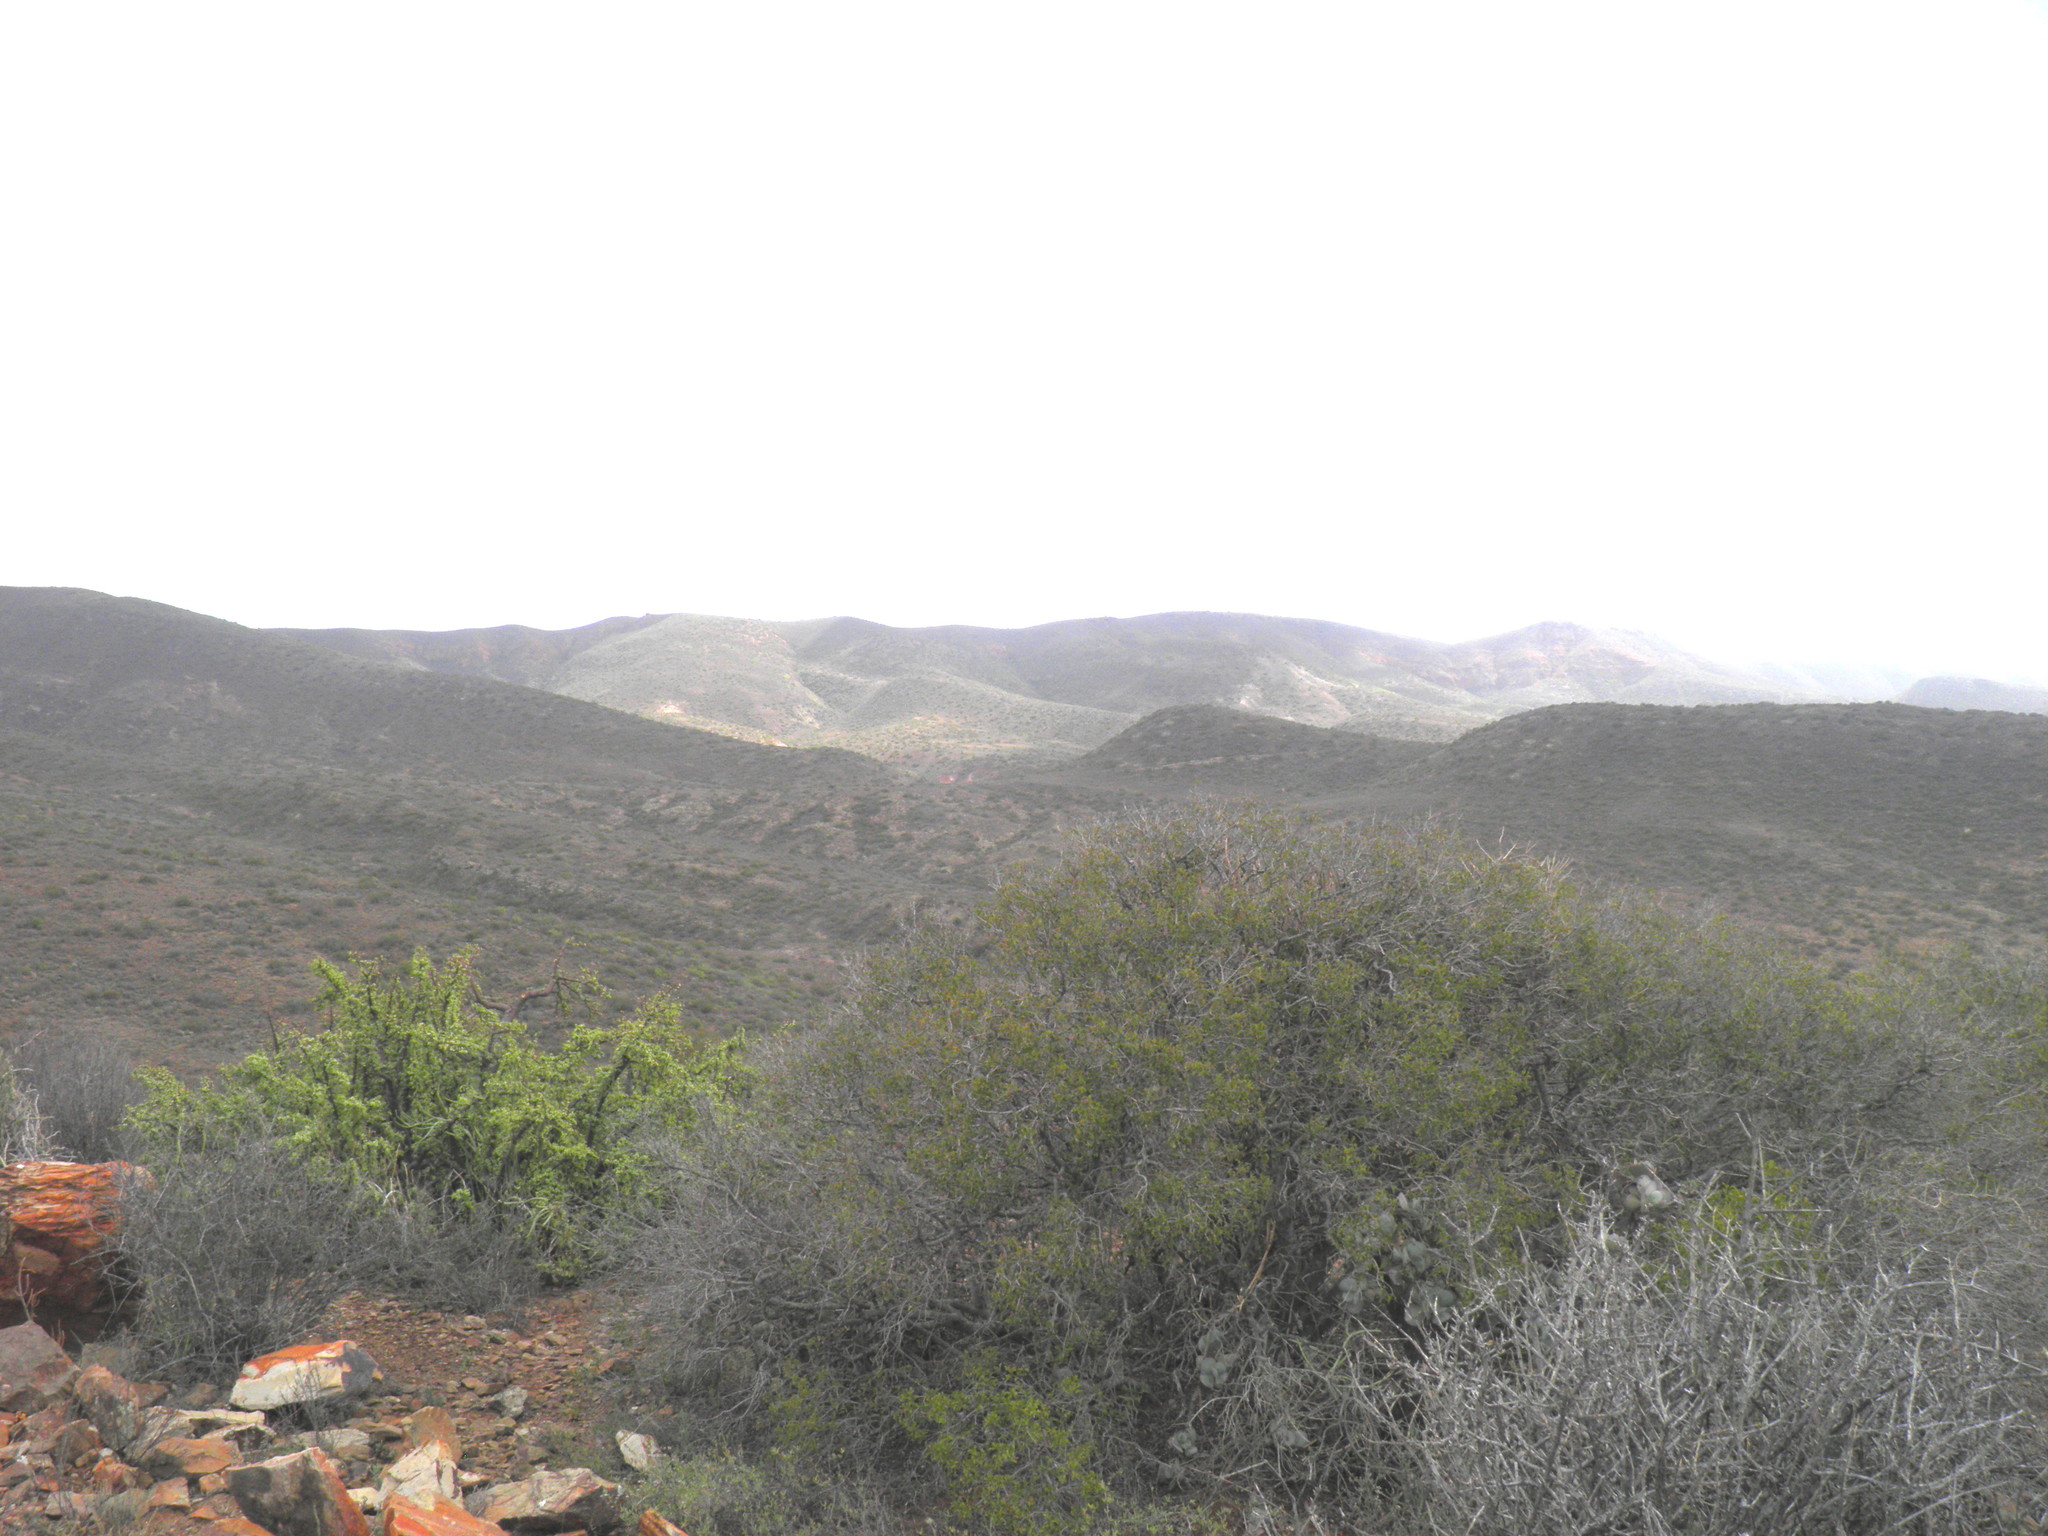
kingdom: Plantae
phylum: Tracheophyta
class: Magnoliopsida
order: Caryophyllales
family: Didiereaceae
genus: Portulacaria
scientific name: Portulacaria afra
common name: Elephant-bush
